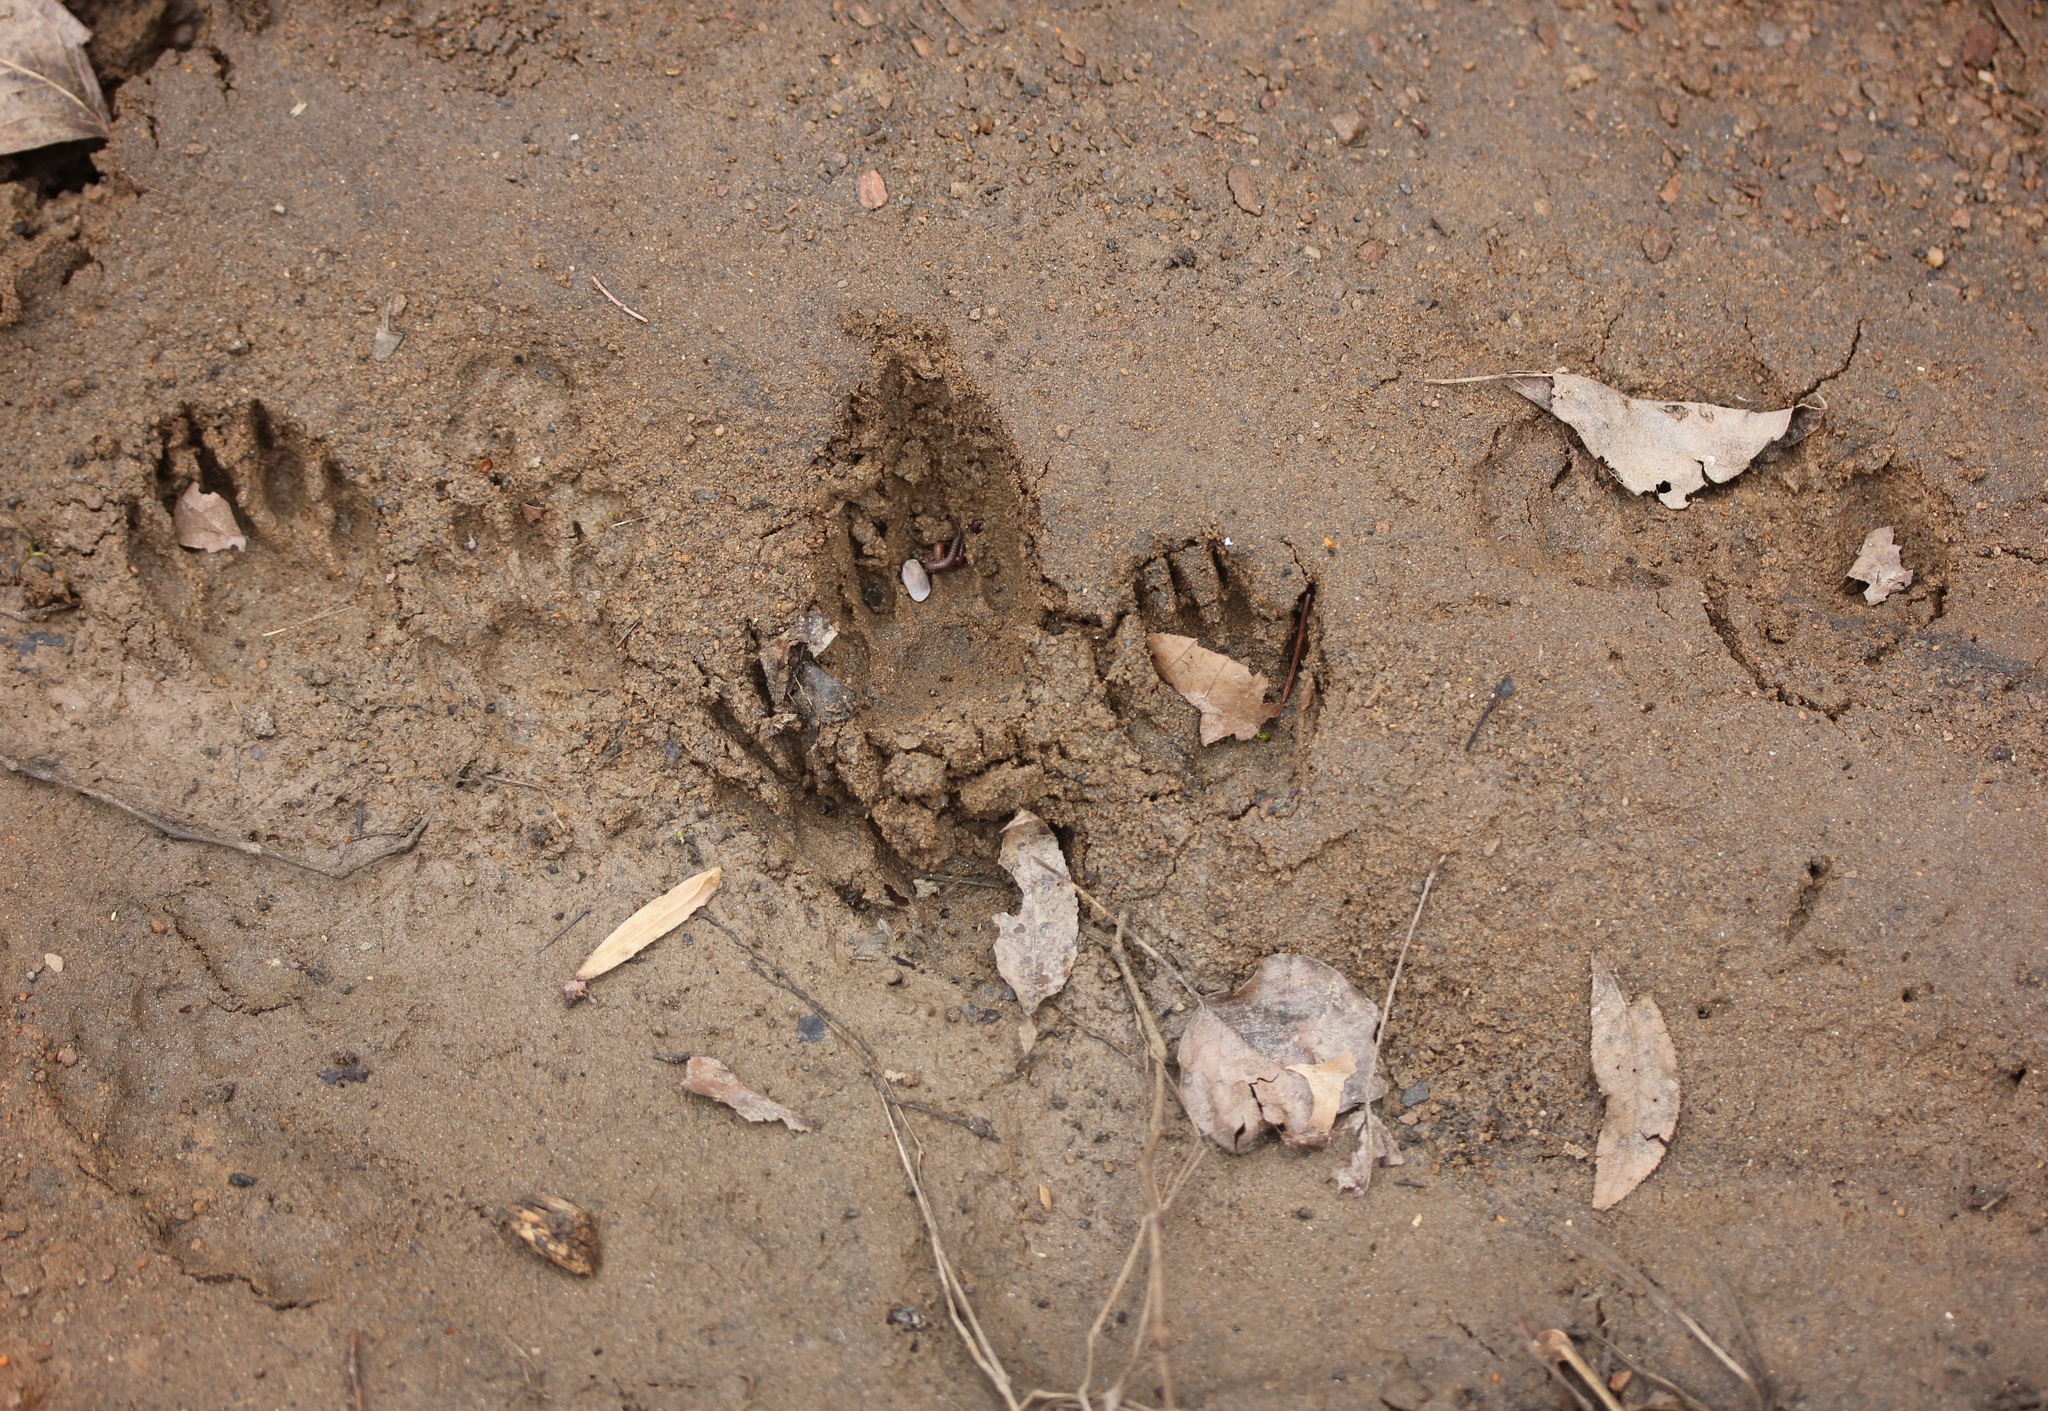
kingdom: Animalia
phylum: Chordata
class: Mammalia
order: Carnivora
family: Procyonidae
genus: Procyon
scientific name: Procyon lotor
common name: Raccoon
